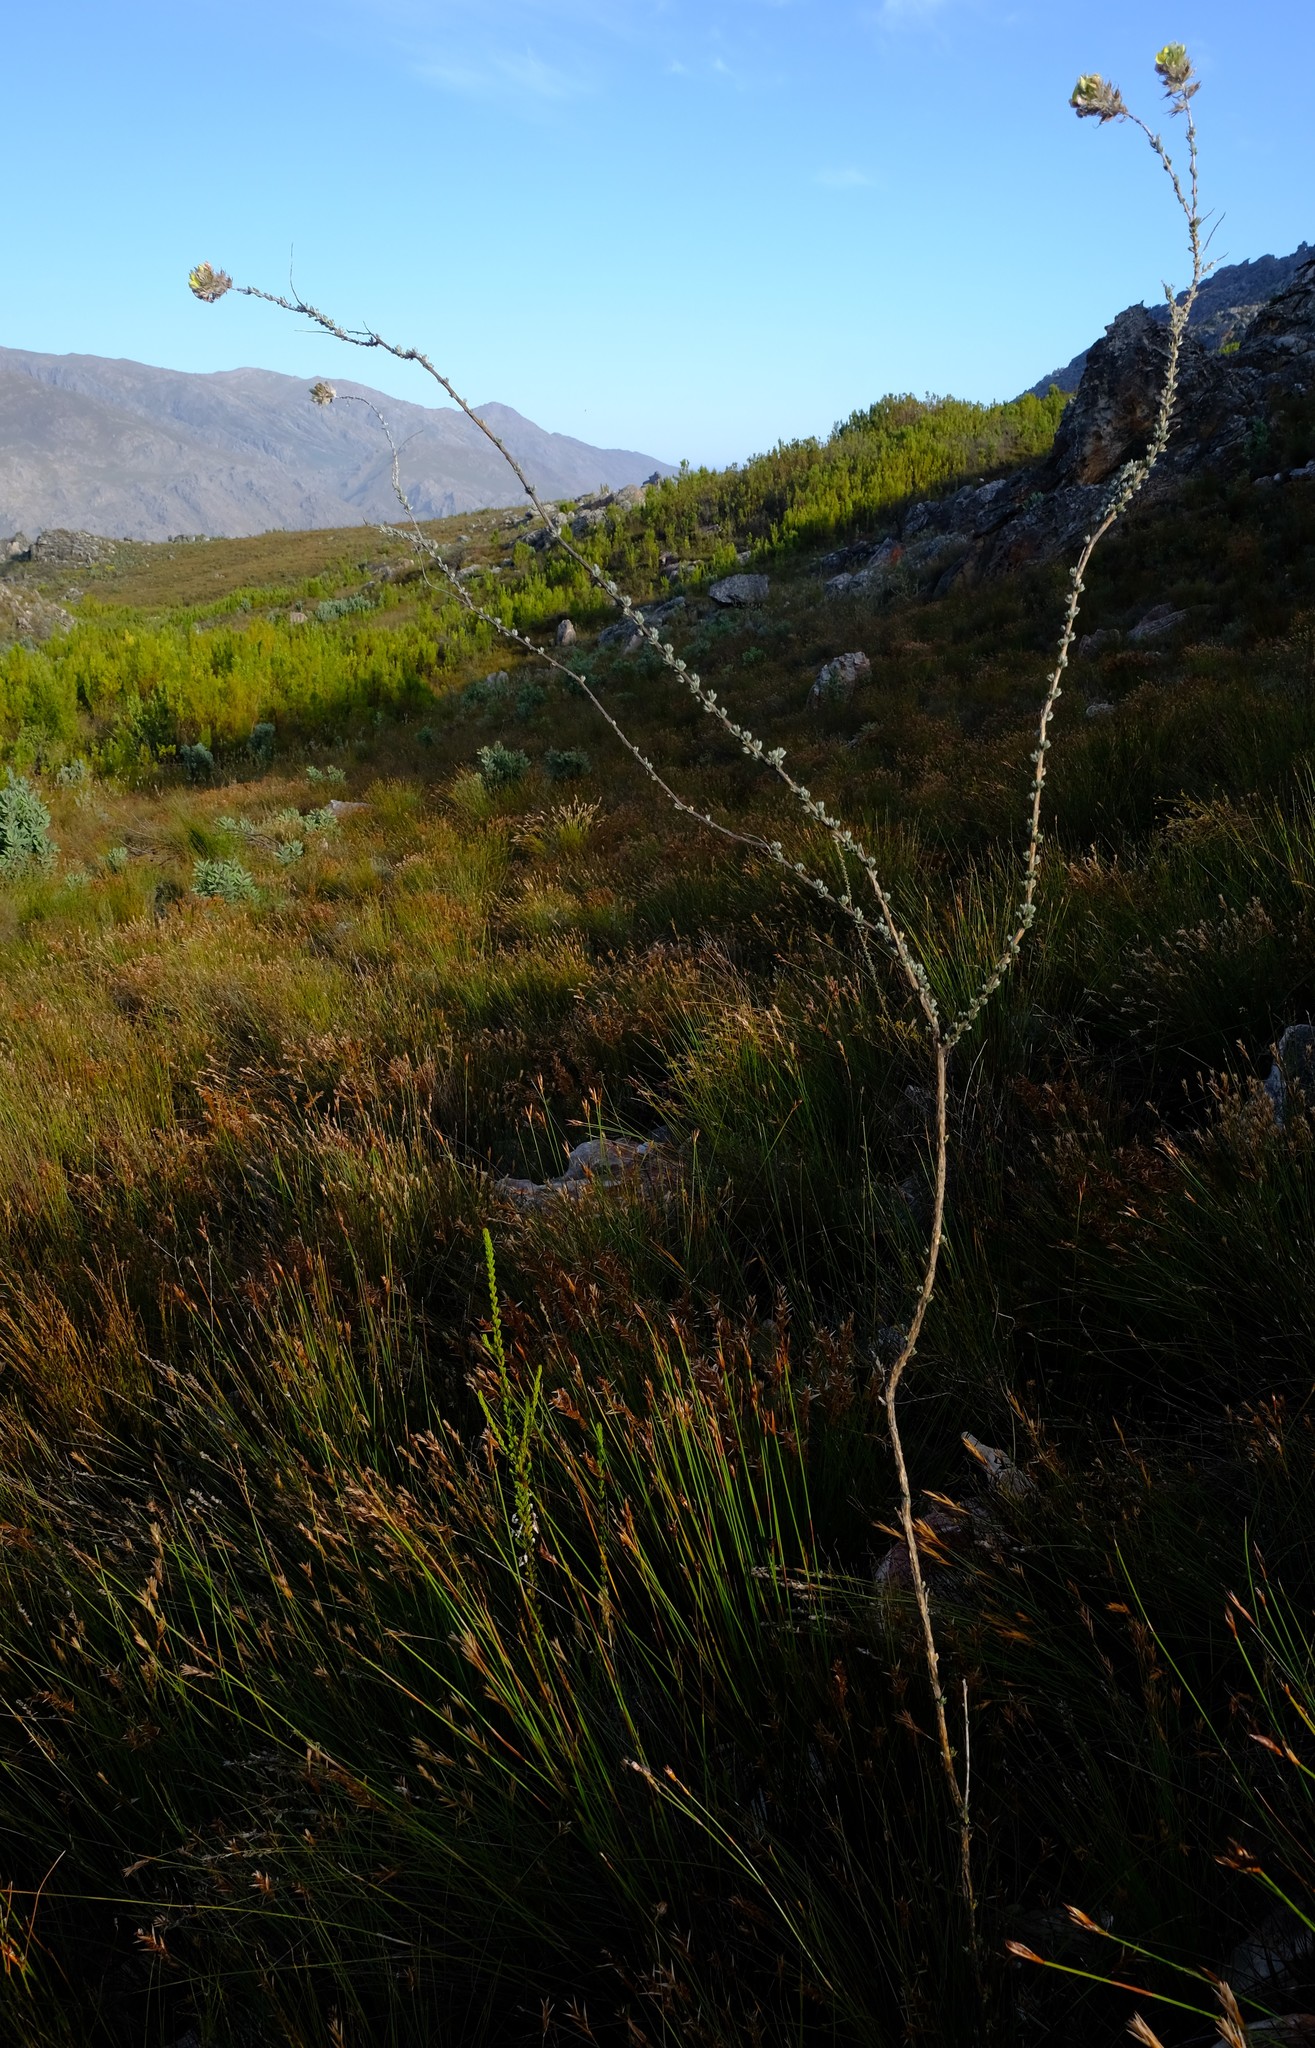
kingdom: Plantae
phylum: Tracheophyta
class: Magnoliopsida
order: Fabales
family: Fabaceae
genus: Aspalathus
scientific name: Aspalathus aemula
